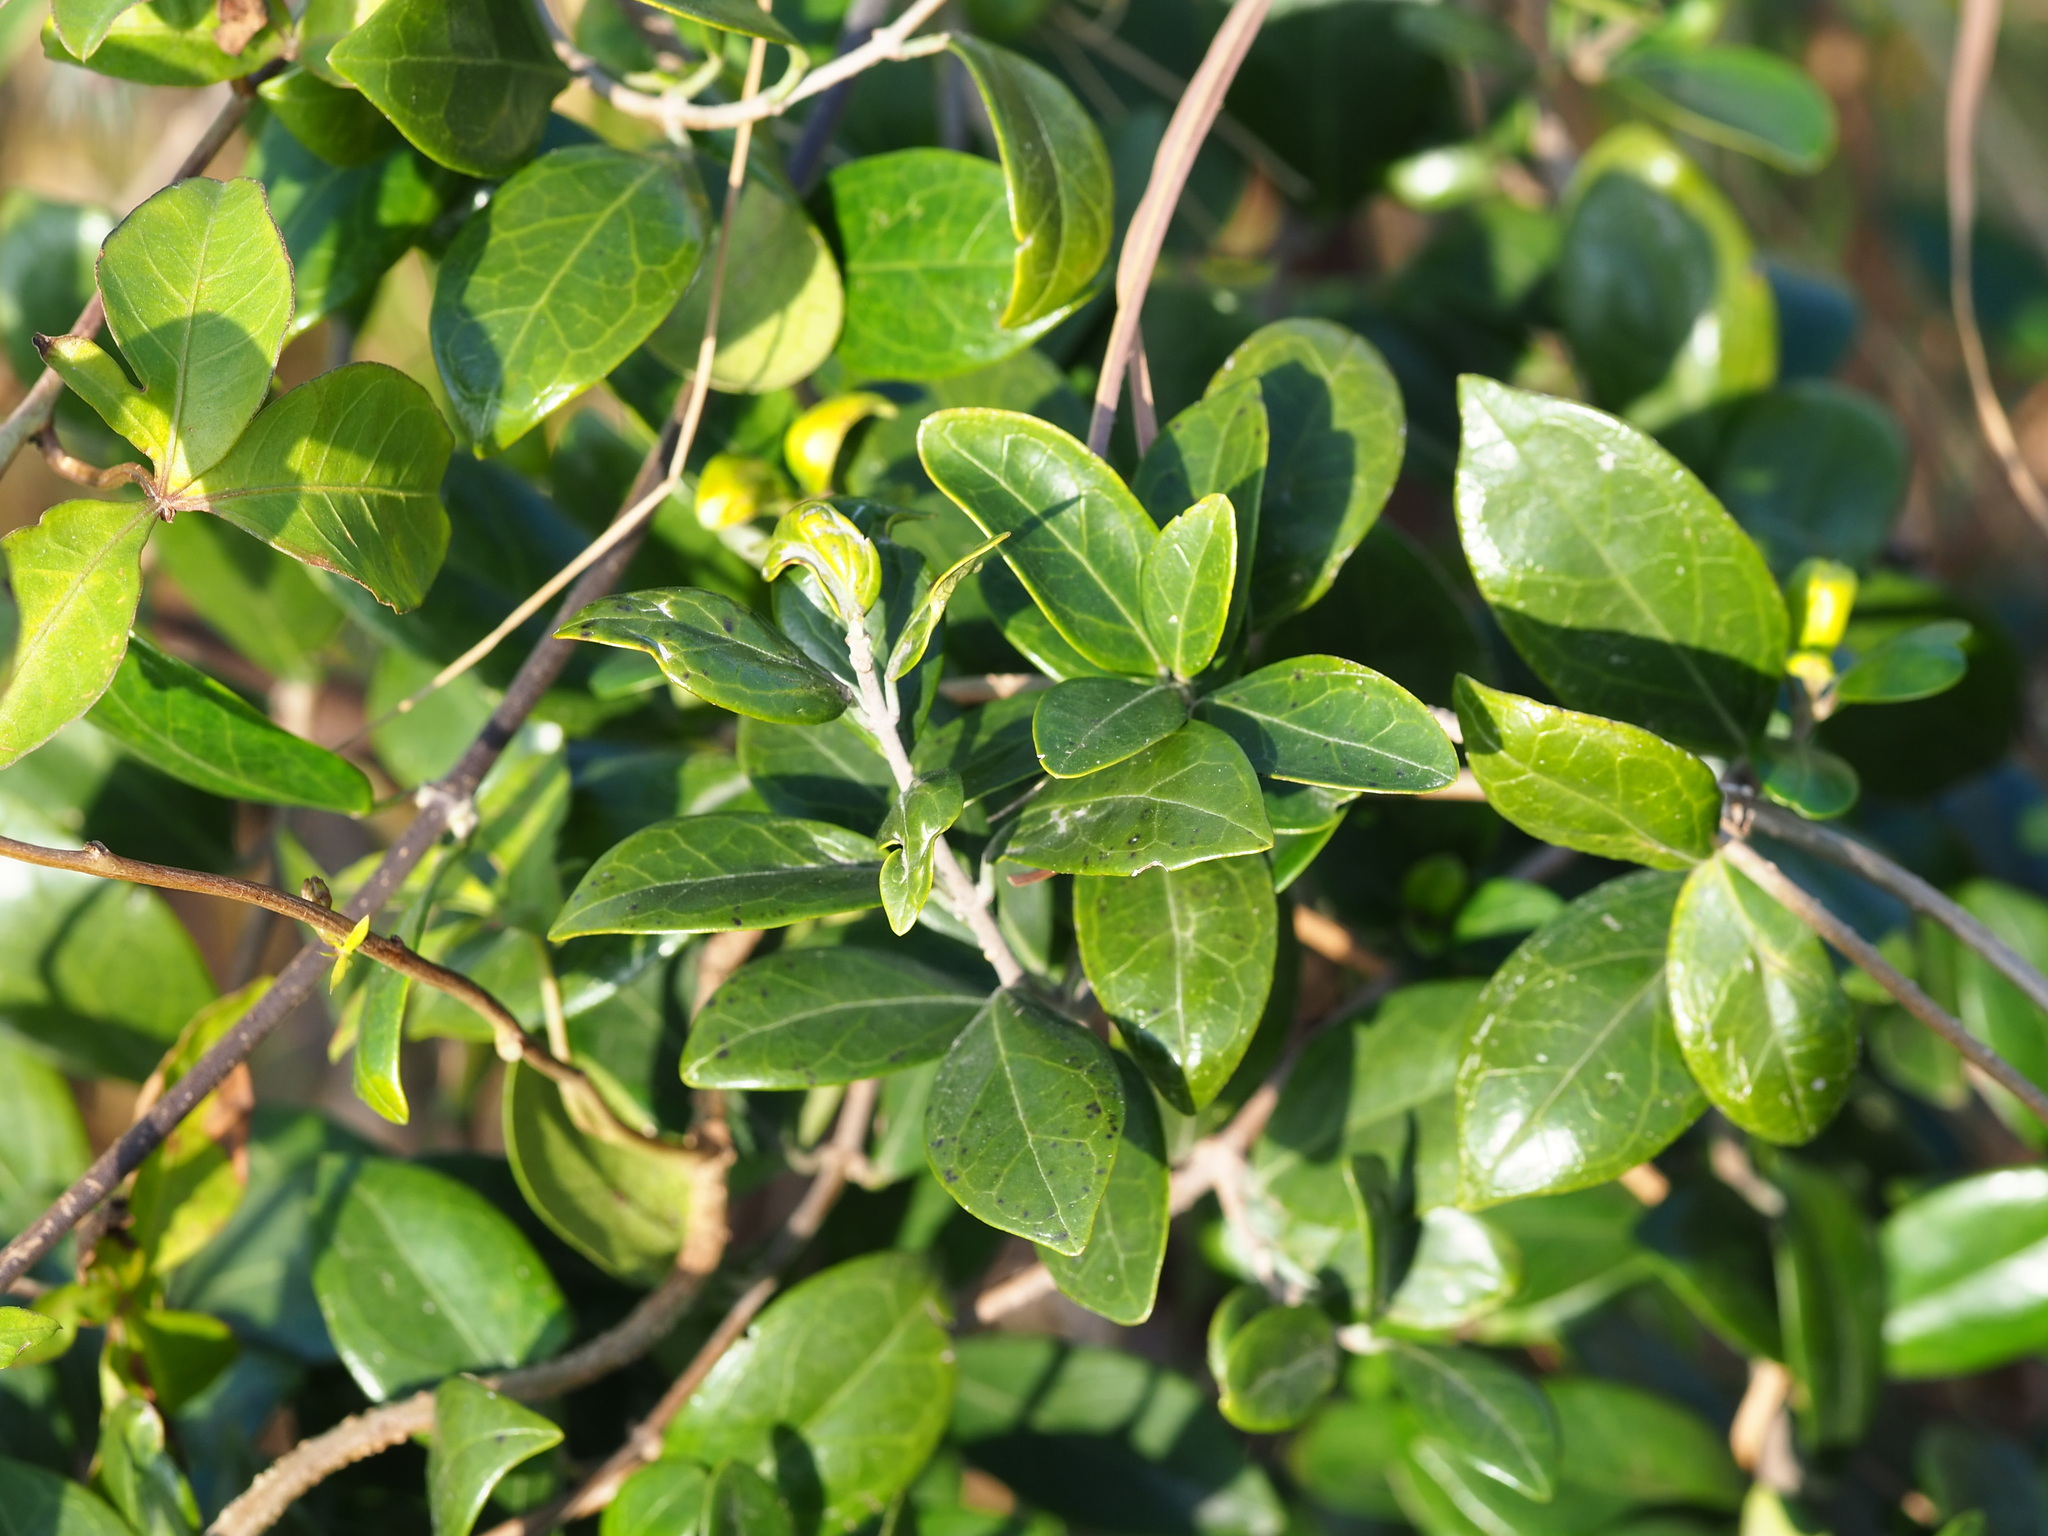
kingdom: Plantae
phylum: Tracheophyta
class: Magnoliopsida
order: Gentianales
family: Apocynaceae
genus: Gymnema
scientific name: Gymnema sylvestre
